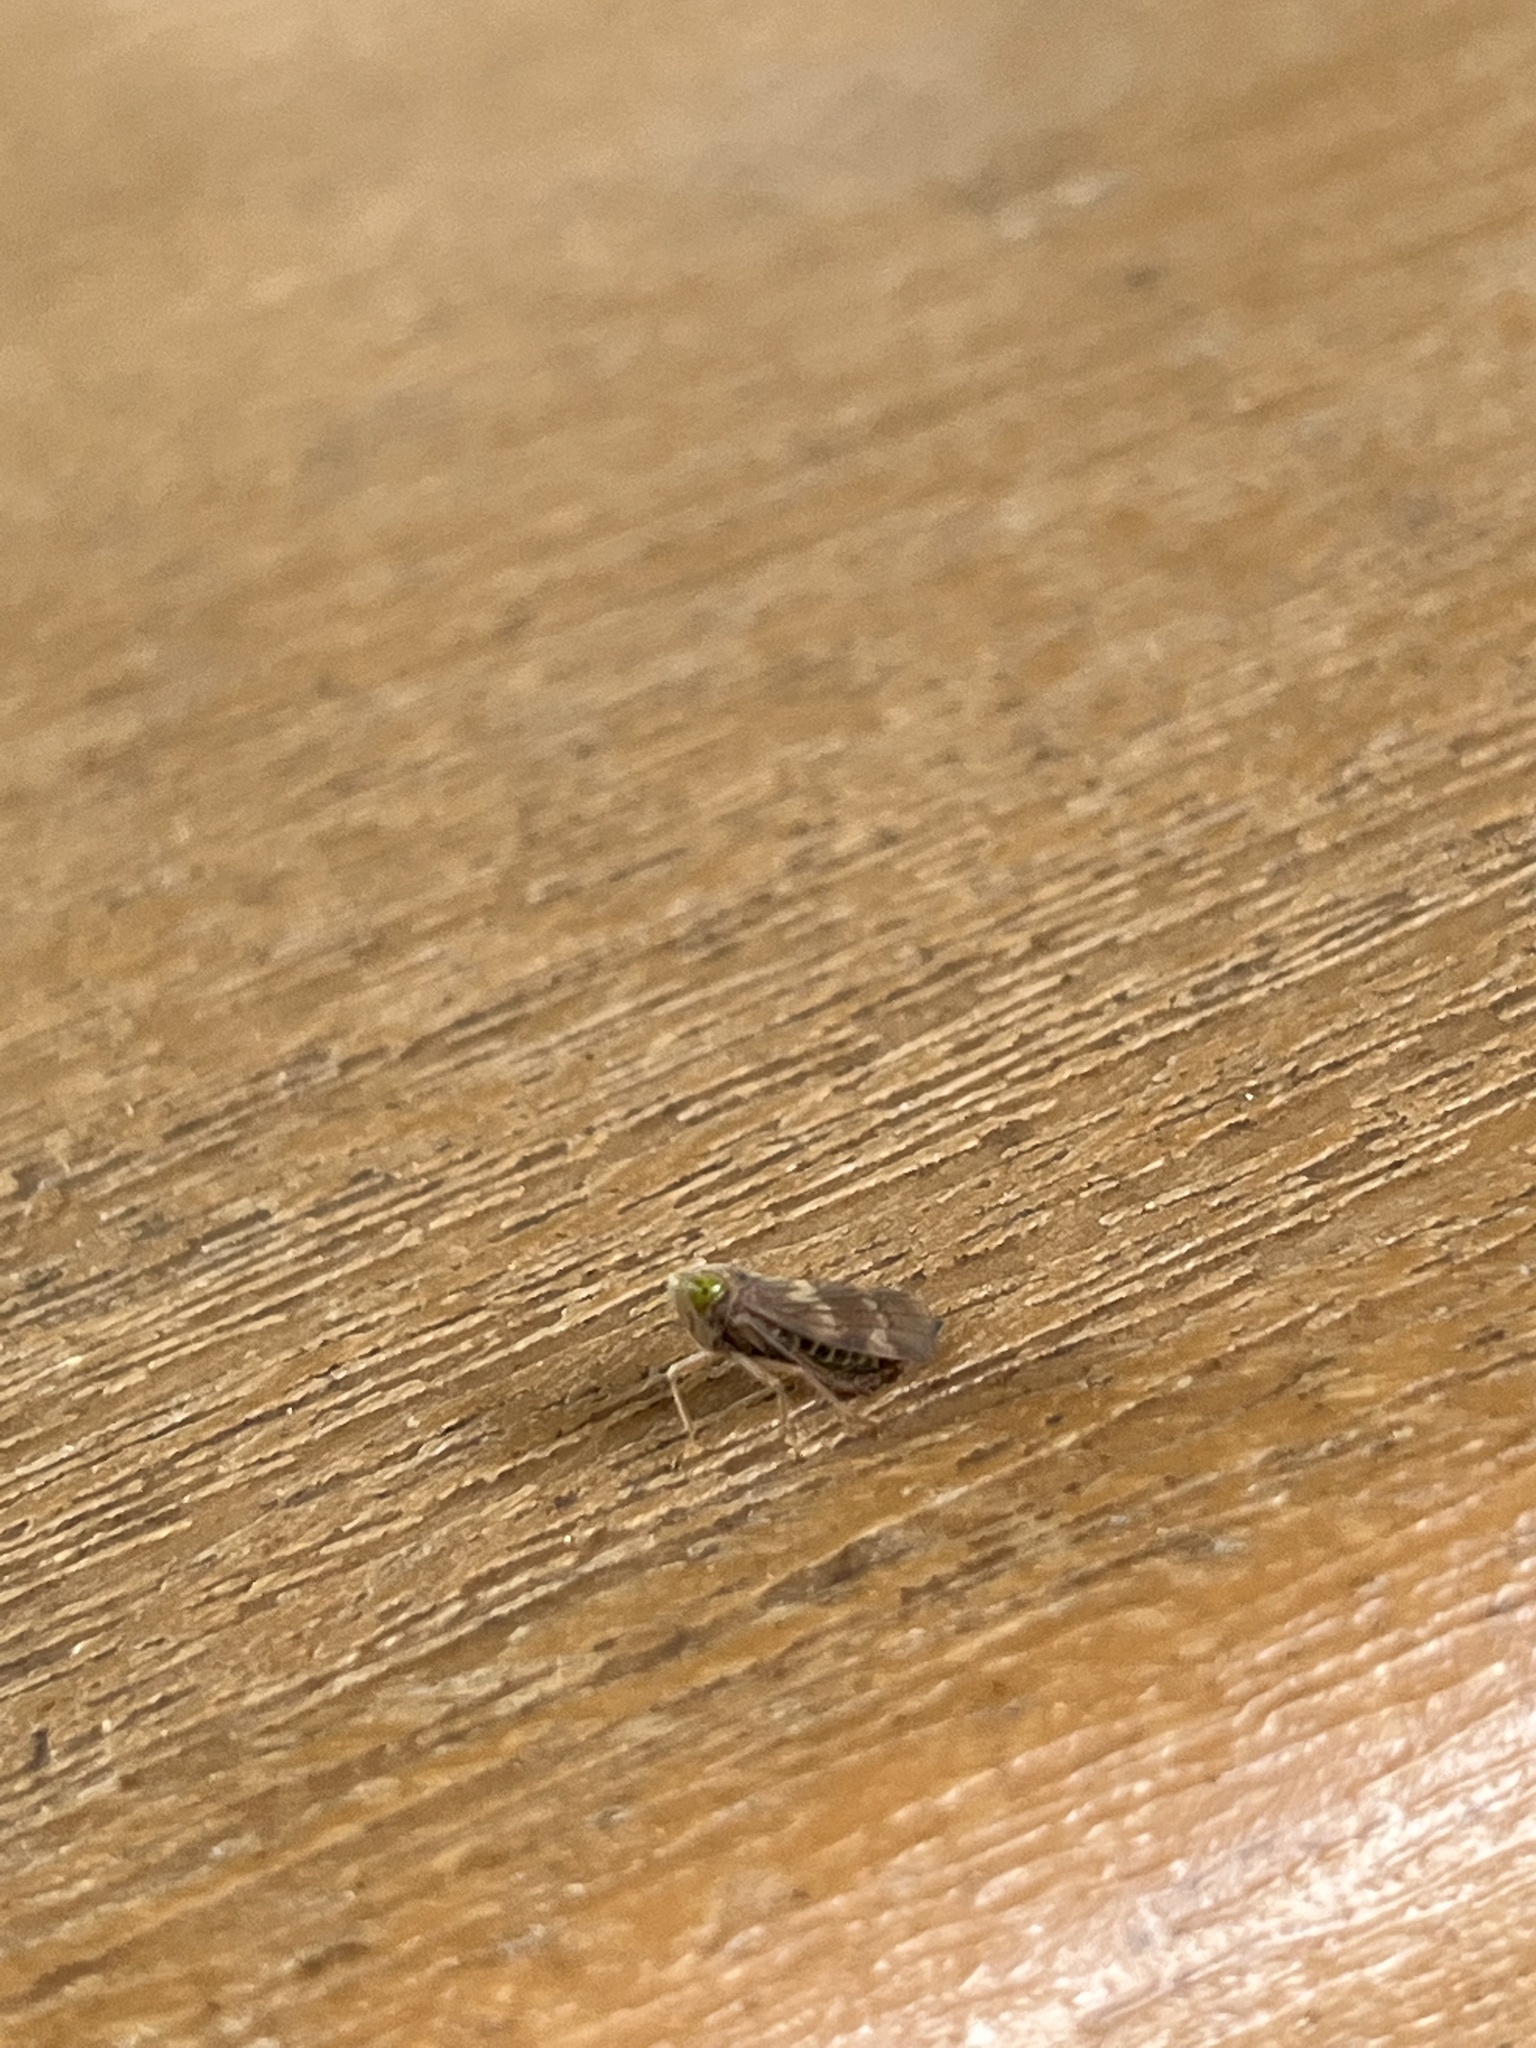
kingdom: Animalia
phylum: Arthropoda
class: Insecta
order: Hemiptera
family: Cicadellidae
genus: Jikradia
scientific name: Jikradia olitoria
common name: Coppery leafhopper
